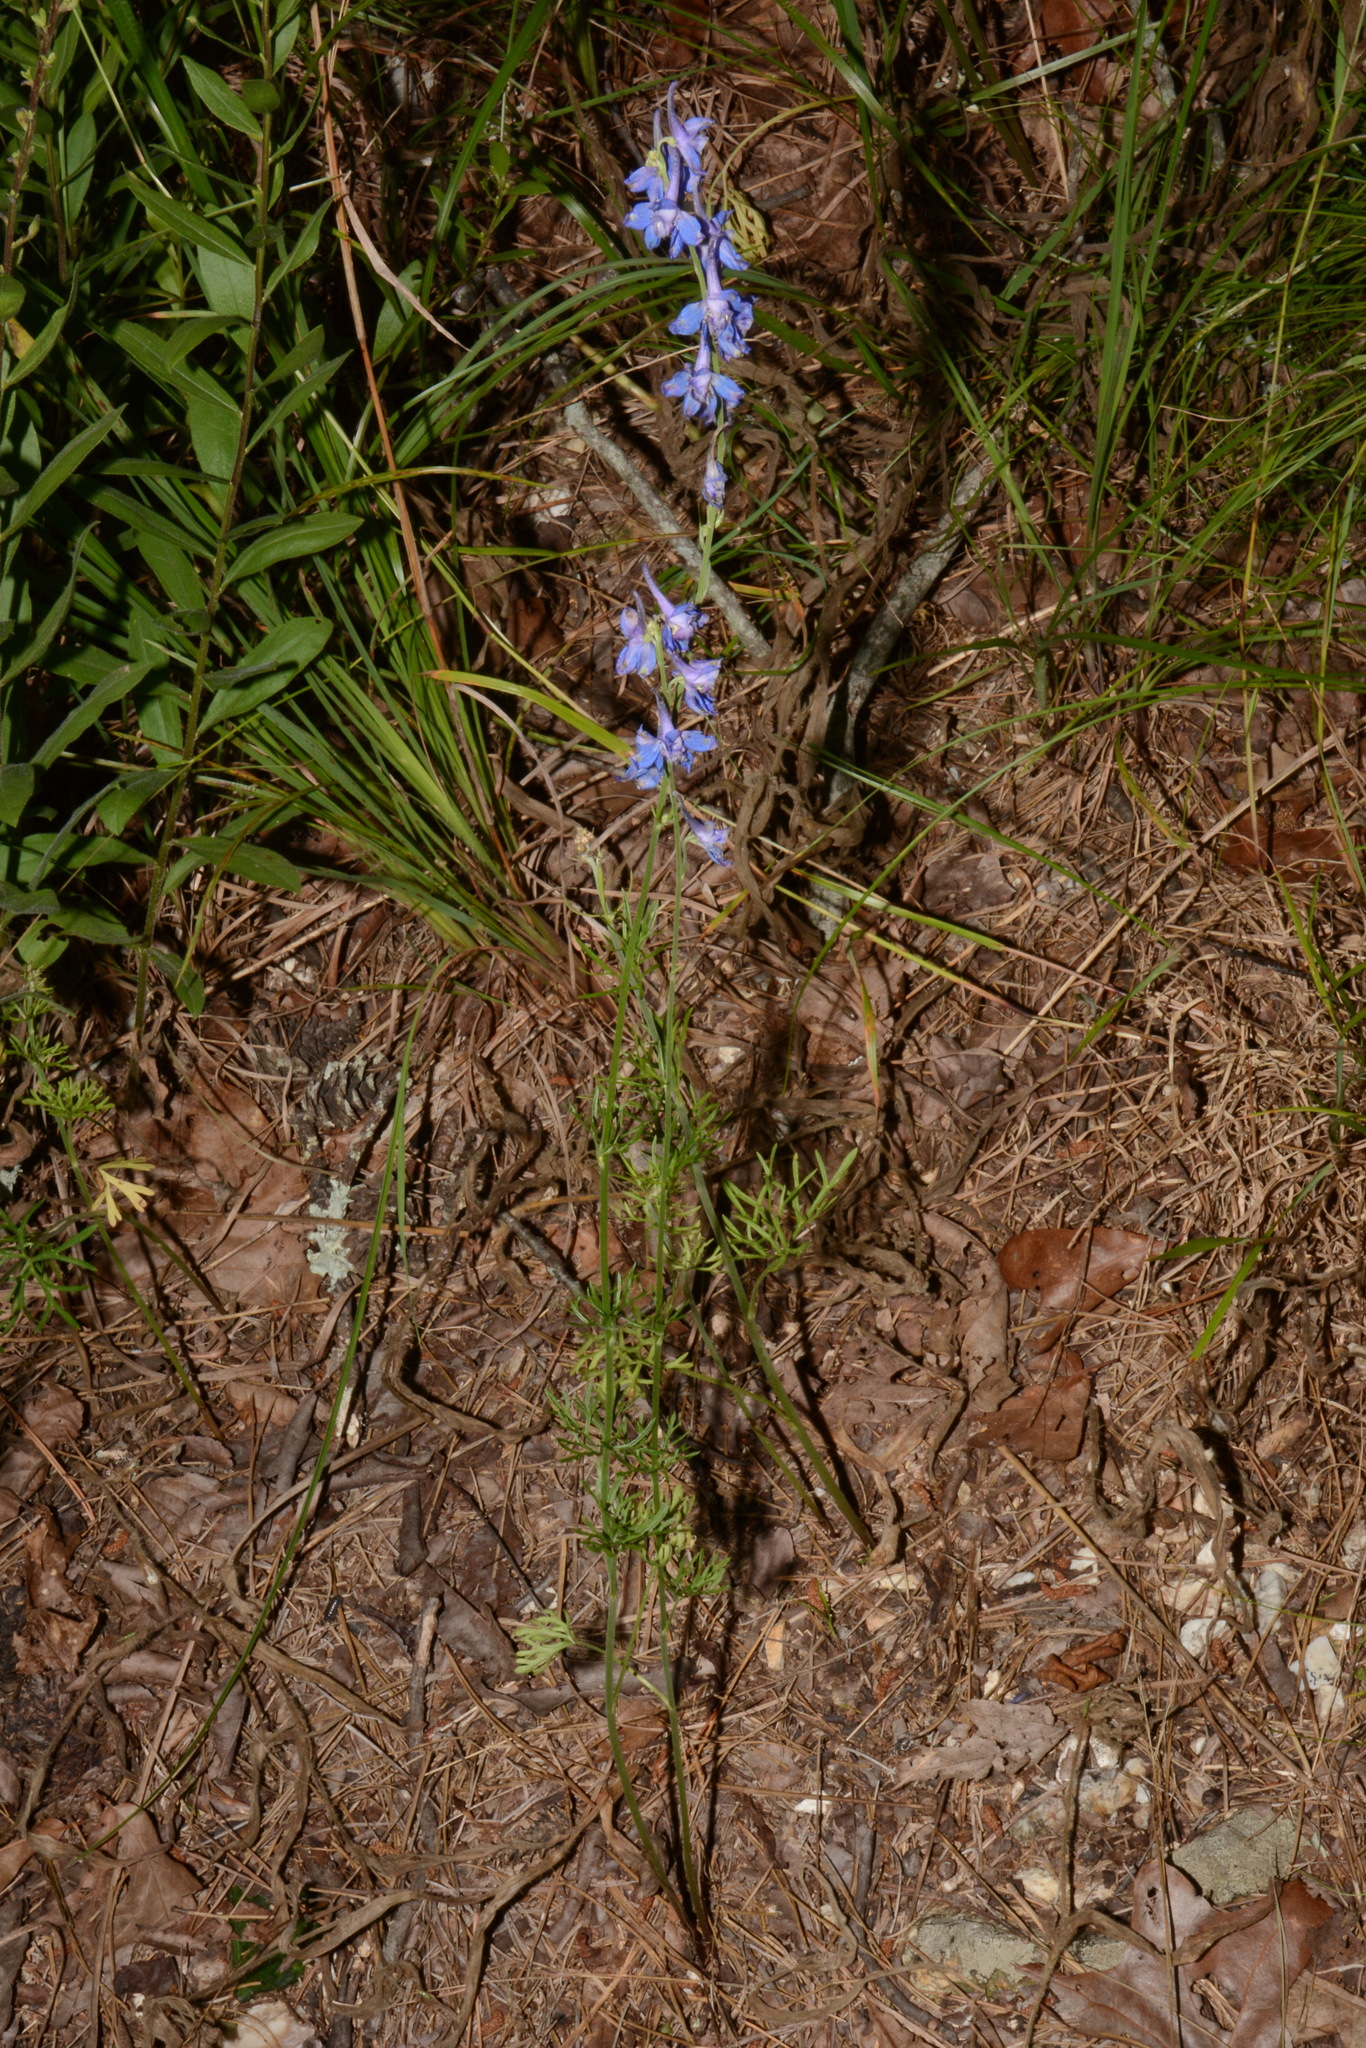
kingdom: Plantae
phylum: Tracheophyta
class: Magnoliopsida
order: Ranunculales
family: Ranunculaceae
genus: Delphinium
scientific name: Delphinium carolinianum
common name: Carolina larkspur
